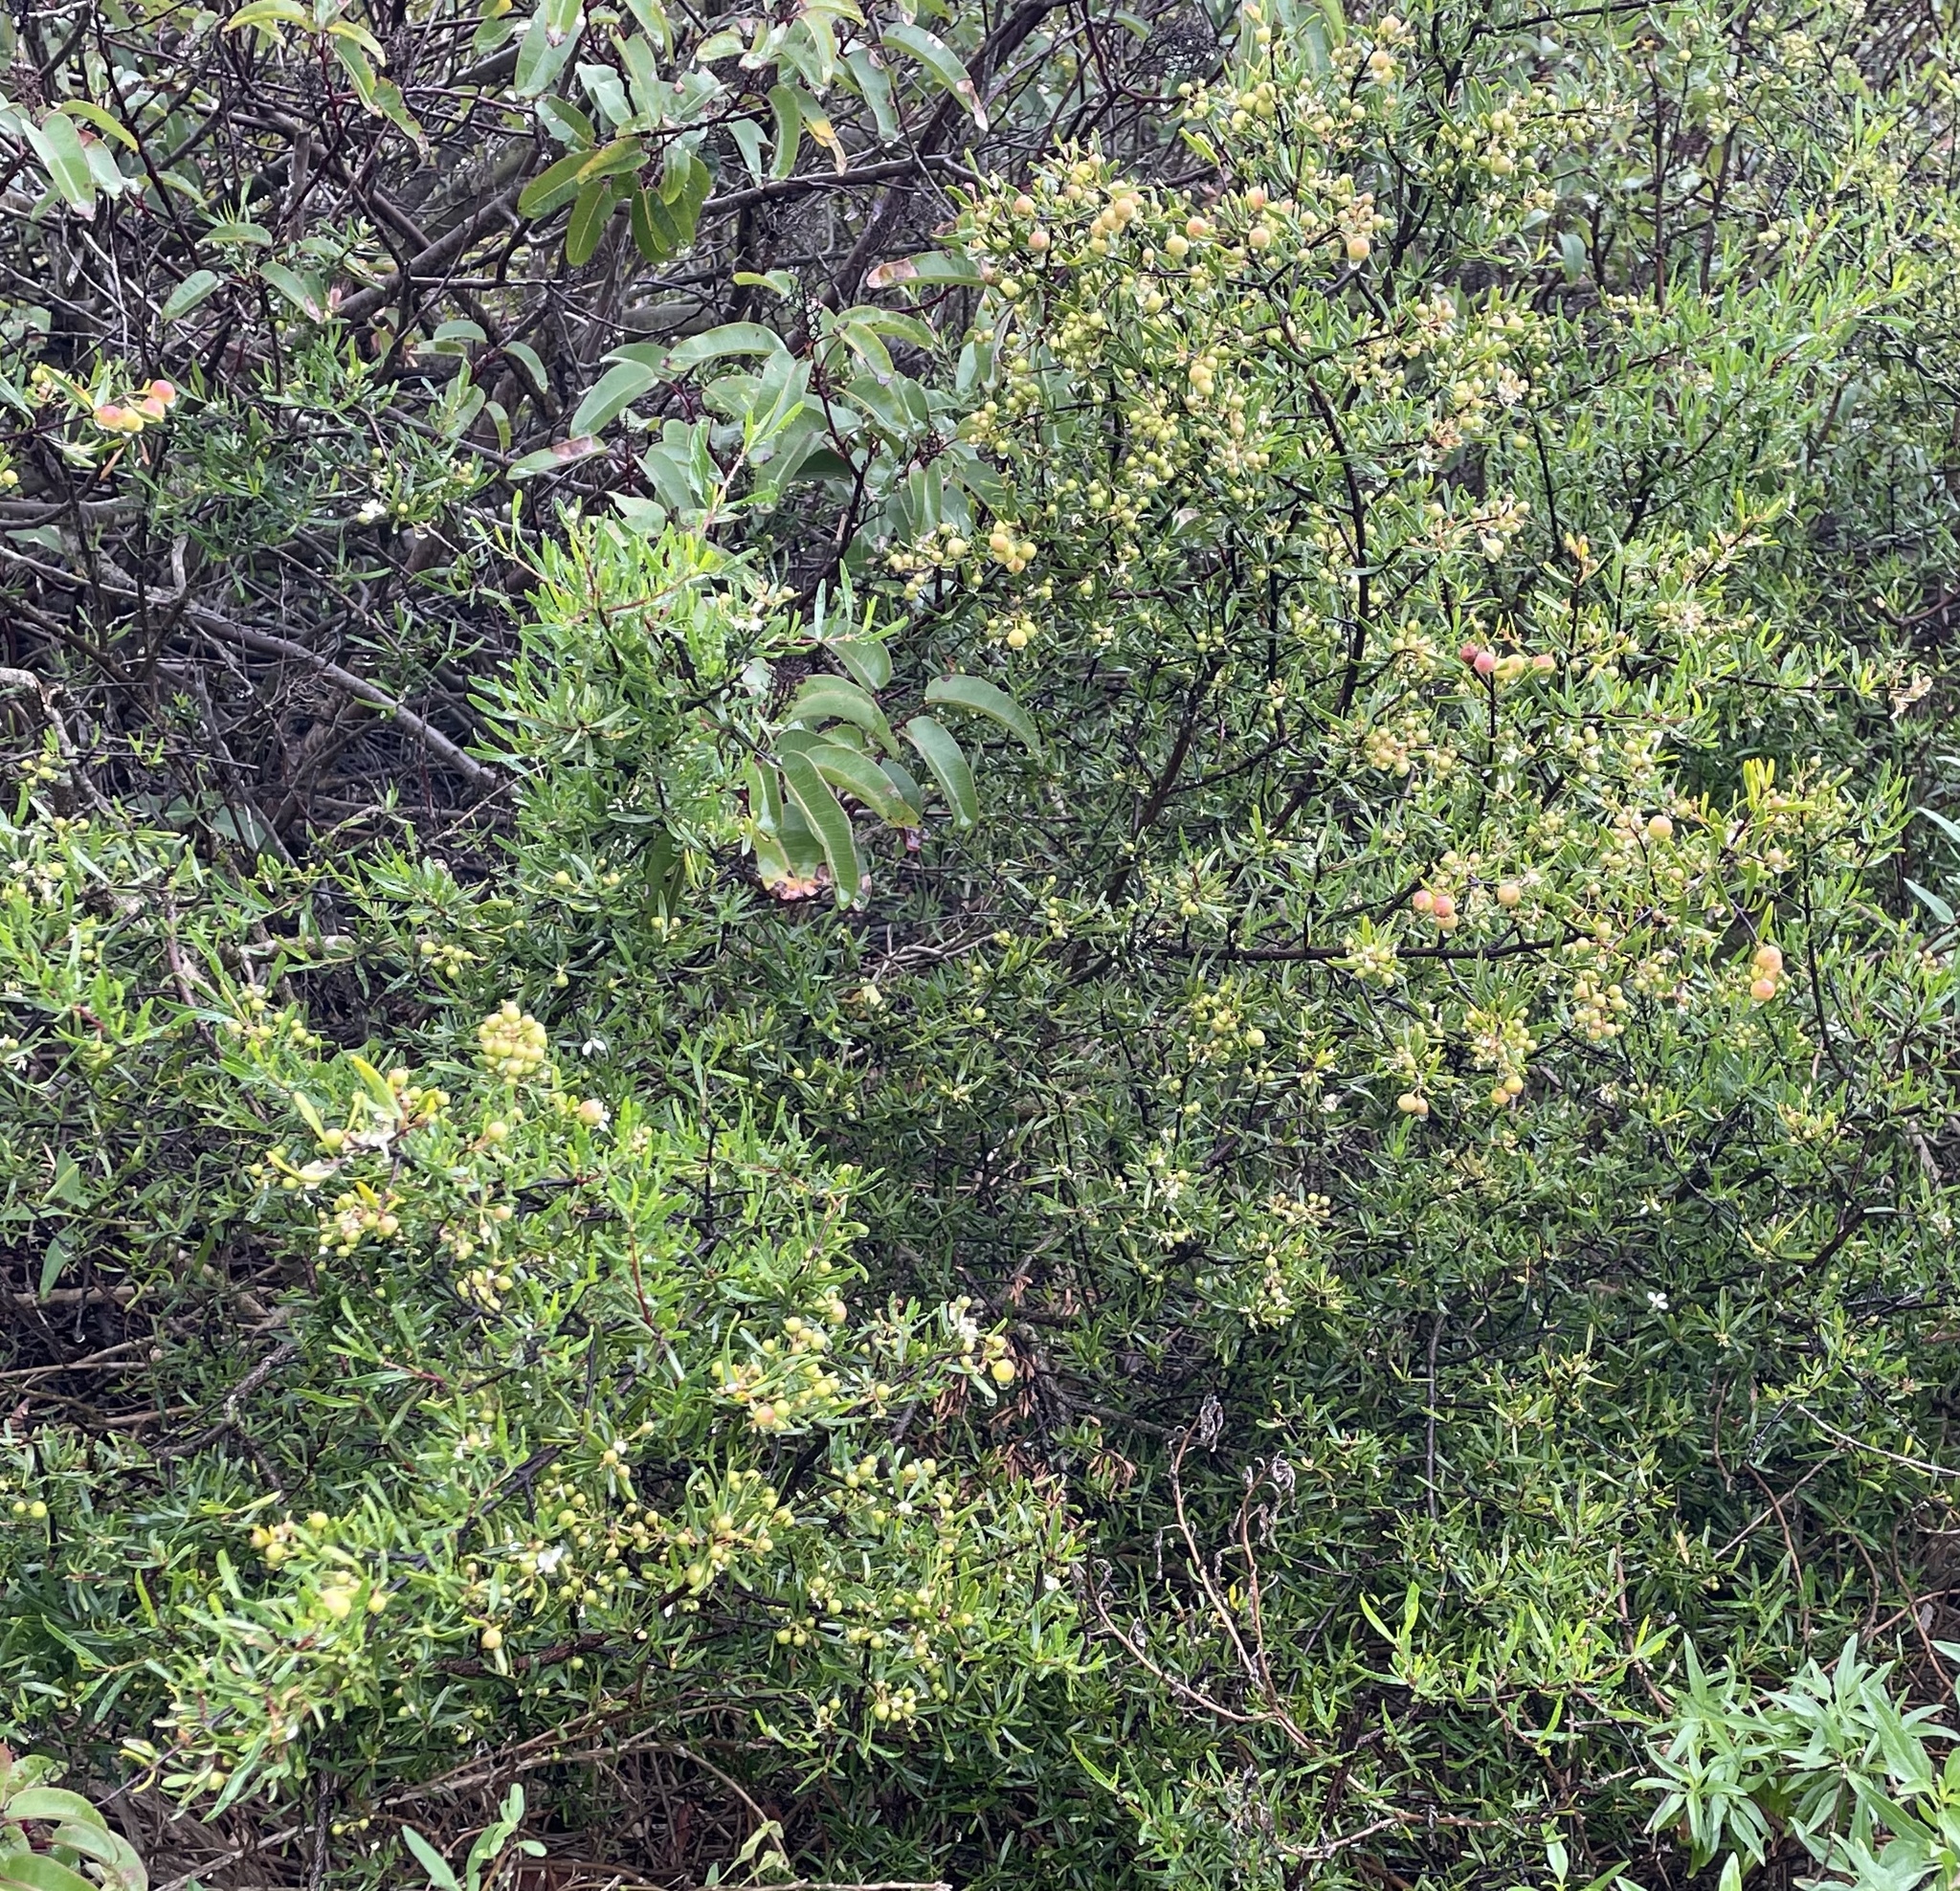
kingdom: Plantae
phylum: Tracheophyta
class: Magnoliopsida
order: Sapindales
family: Rutaceae
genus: Cneoridium
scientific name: Cneoridium dumosum
